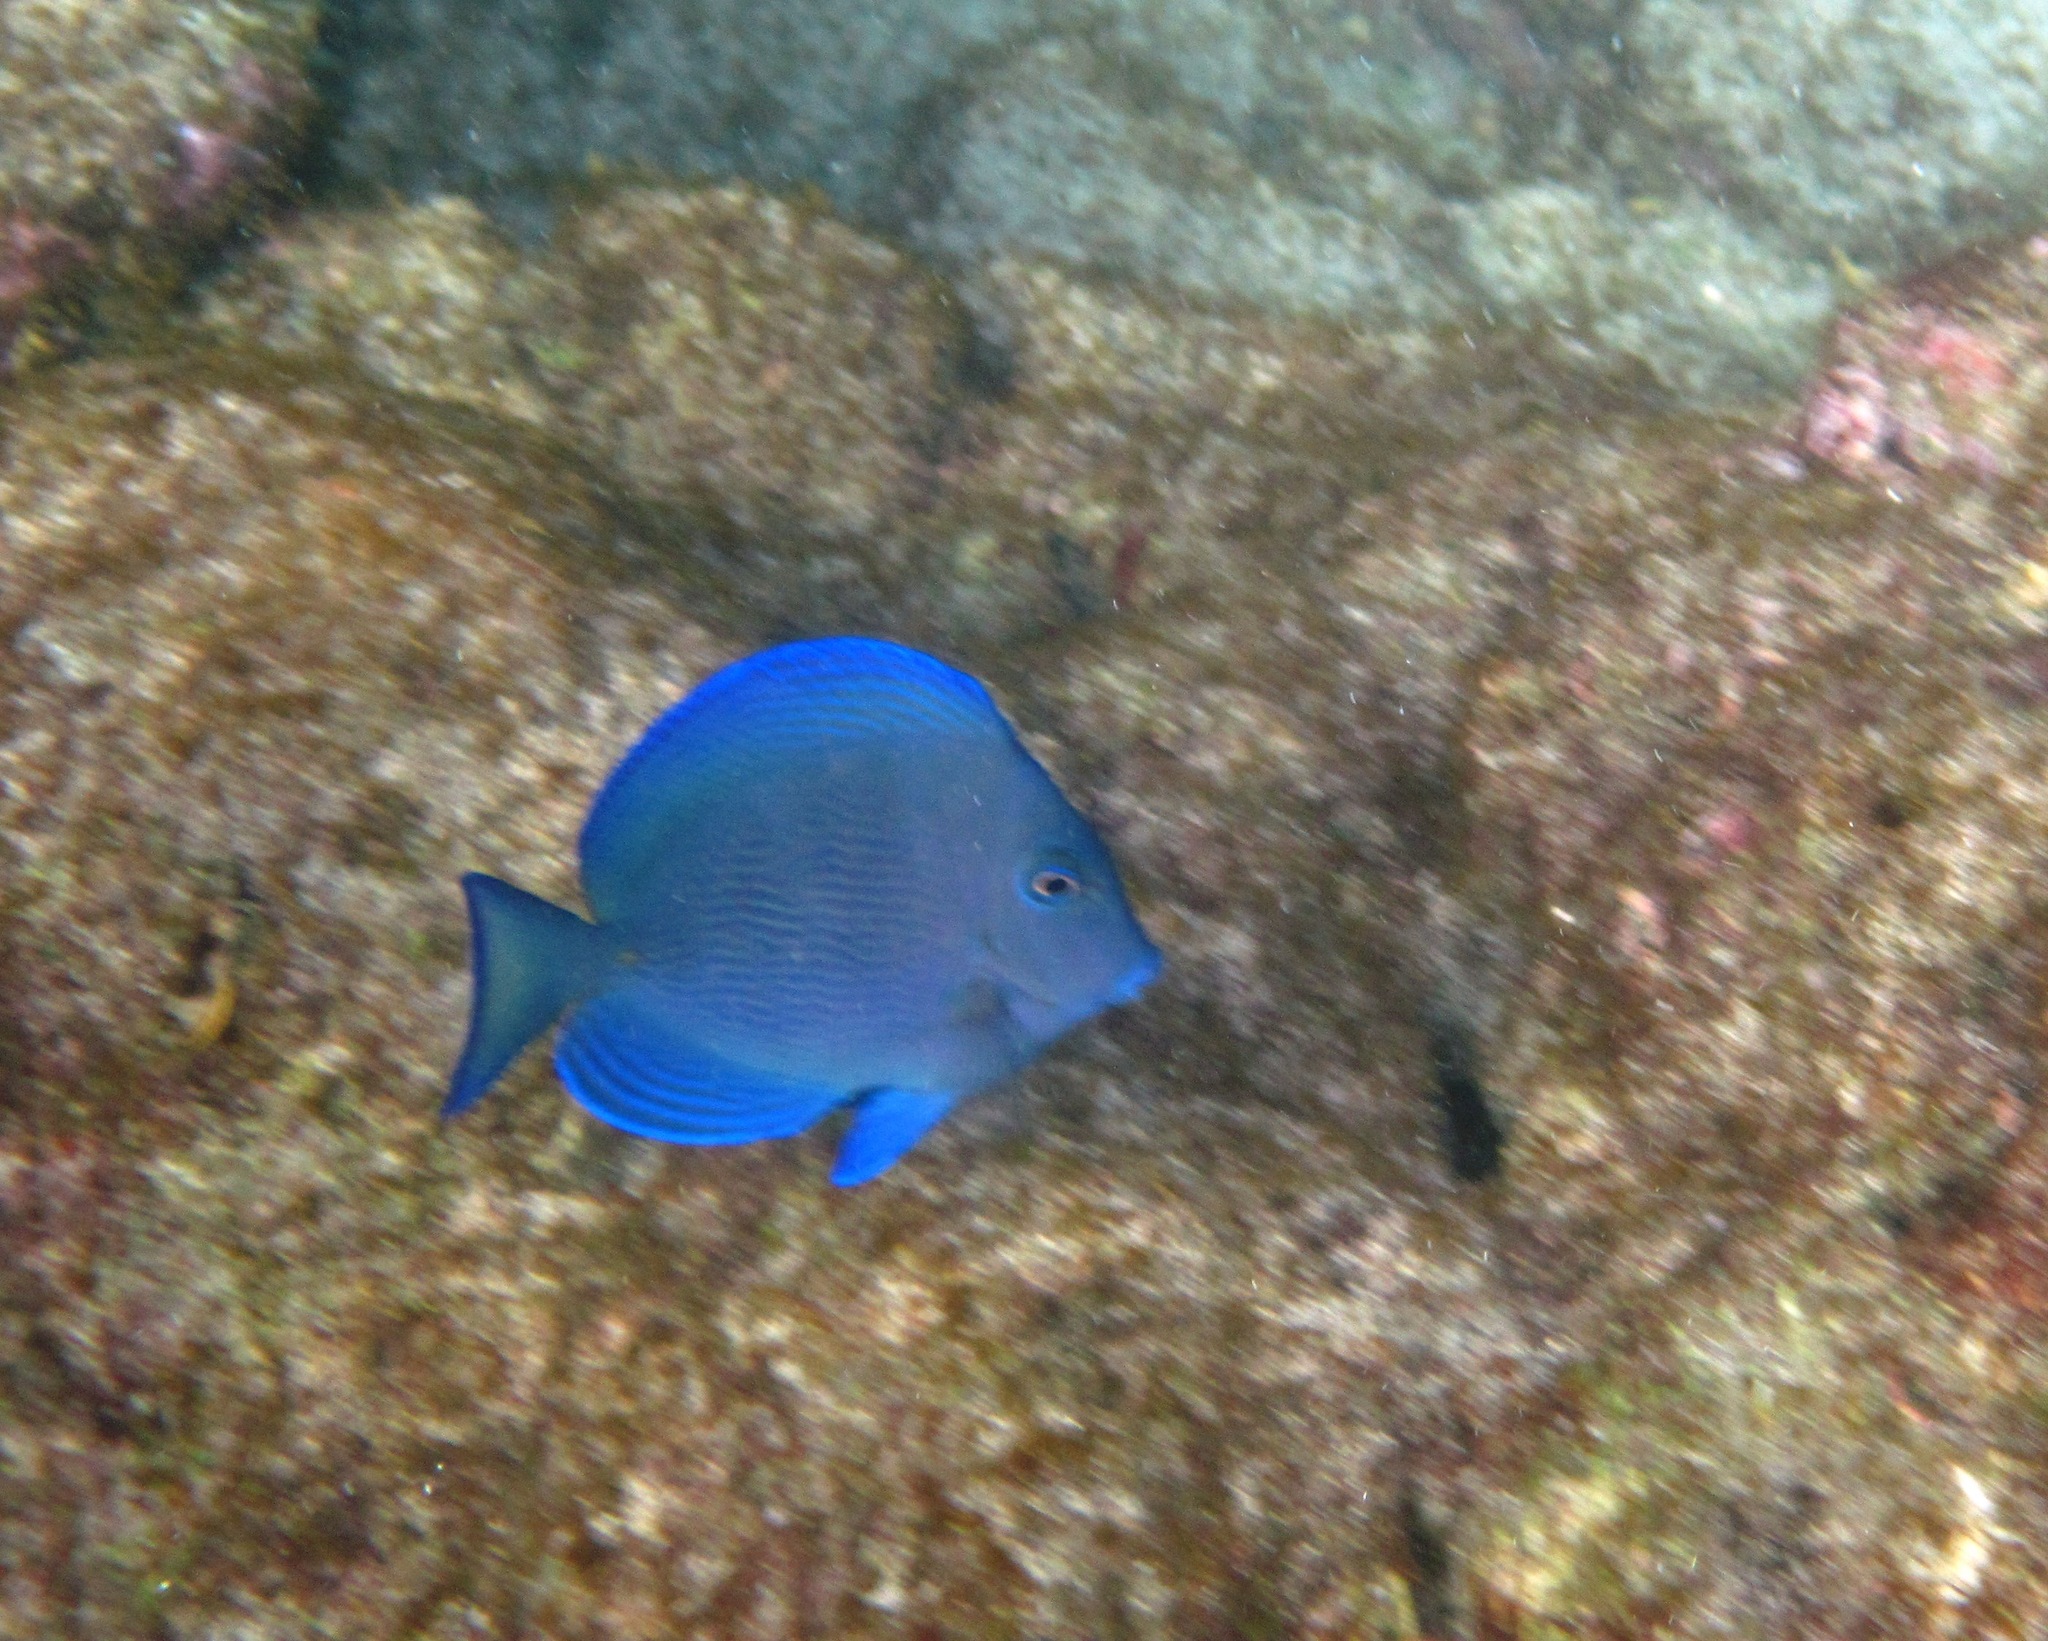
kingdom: Animalia
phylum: Chordata
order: Perciformes
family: Acanthuridae
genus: Acanthurus
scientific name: Acanthurus coeruleus
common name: Blue tang
